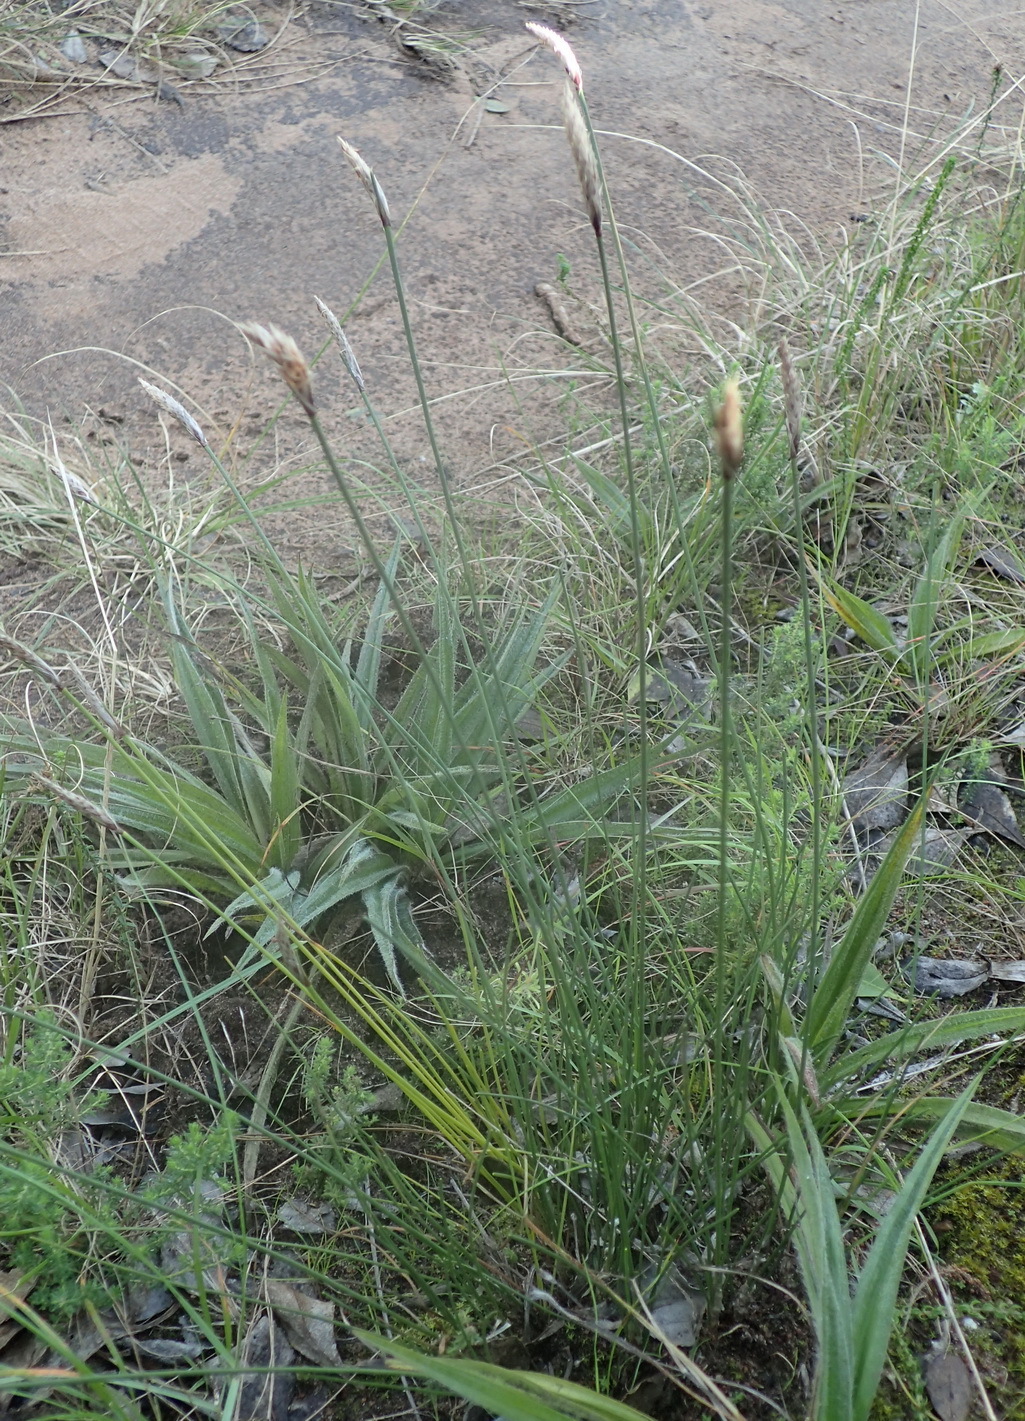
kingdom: Plantae
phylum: Tracheophyta
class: Liliopsida
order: Poales
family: Cyperaceae
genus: Ficinia
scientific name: Ficinia deusta
